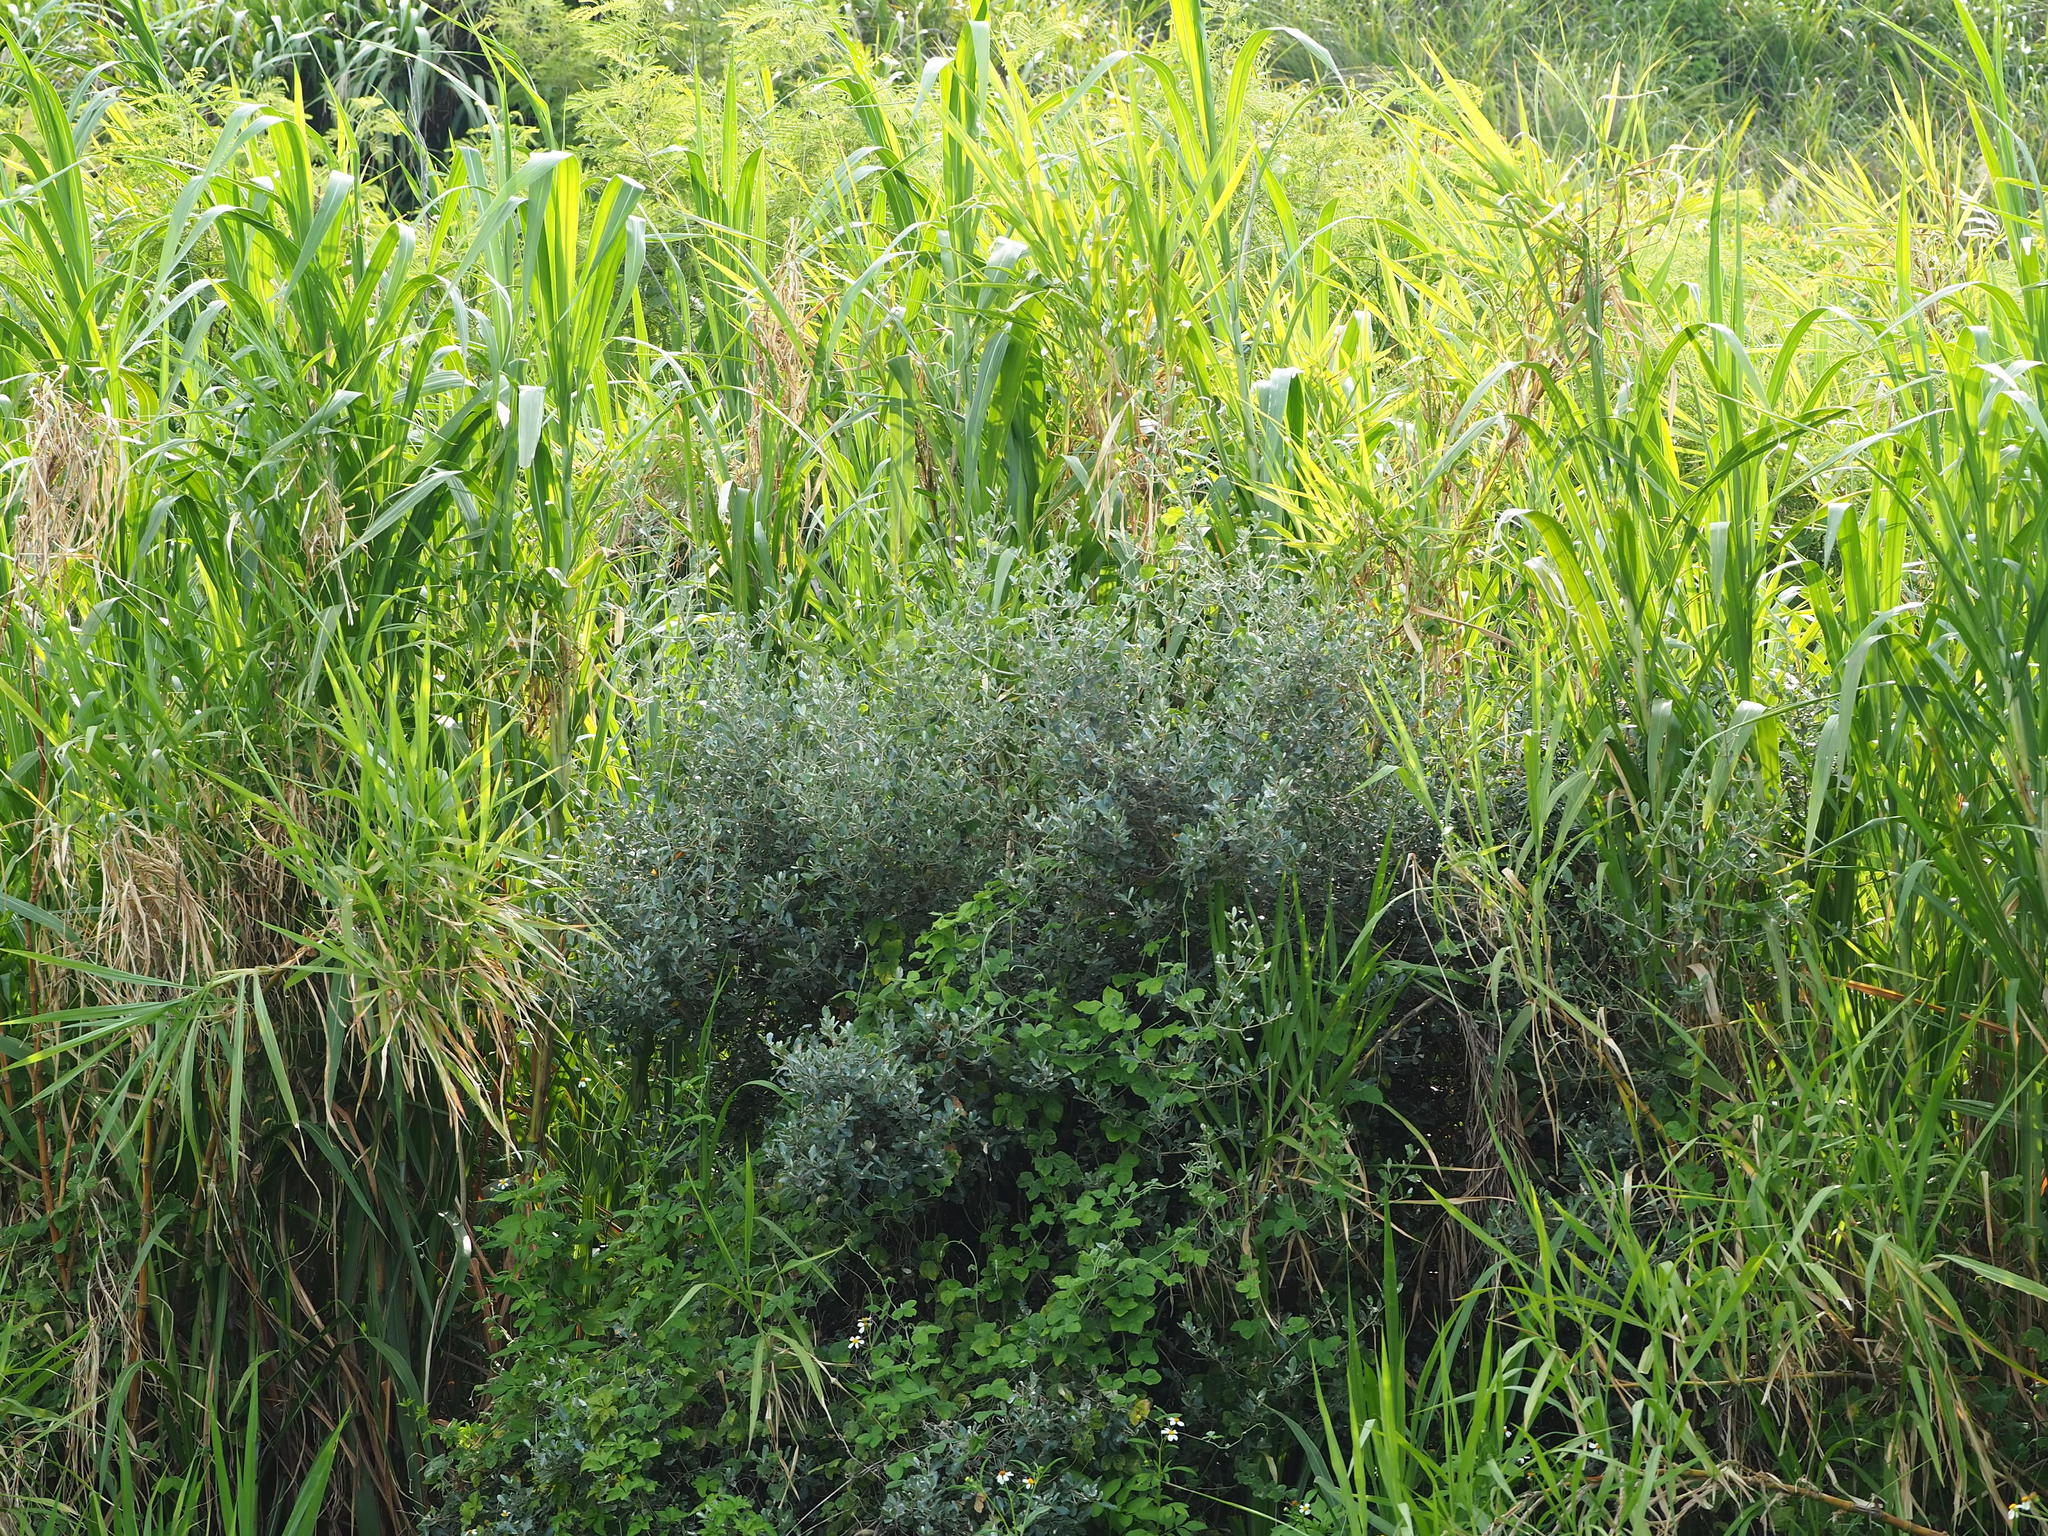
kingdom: Plantae
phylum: Tracheophyta
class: Magnoliopsida
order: Rosales
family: Elaeagnaceae
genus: Elaeagnus
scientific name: Elaeagnus oldhamii
